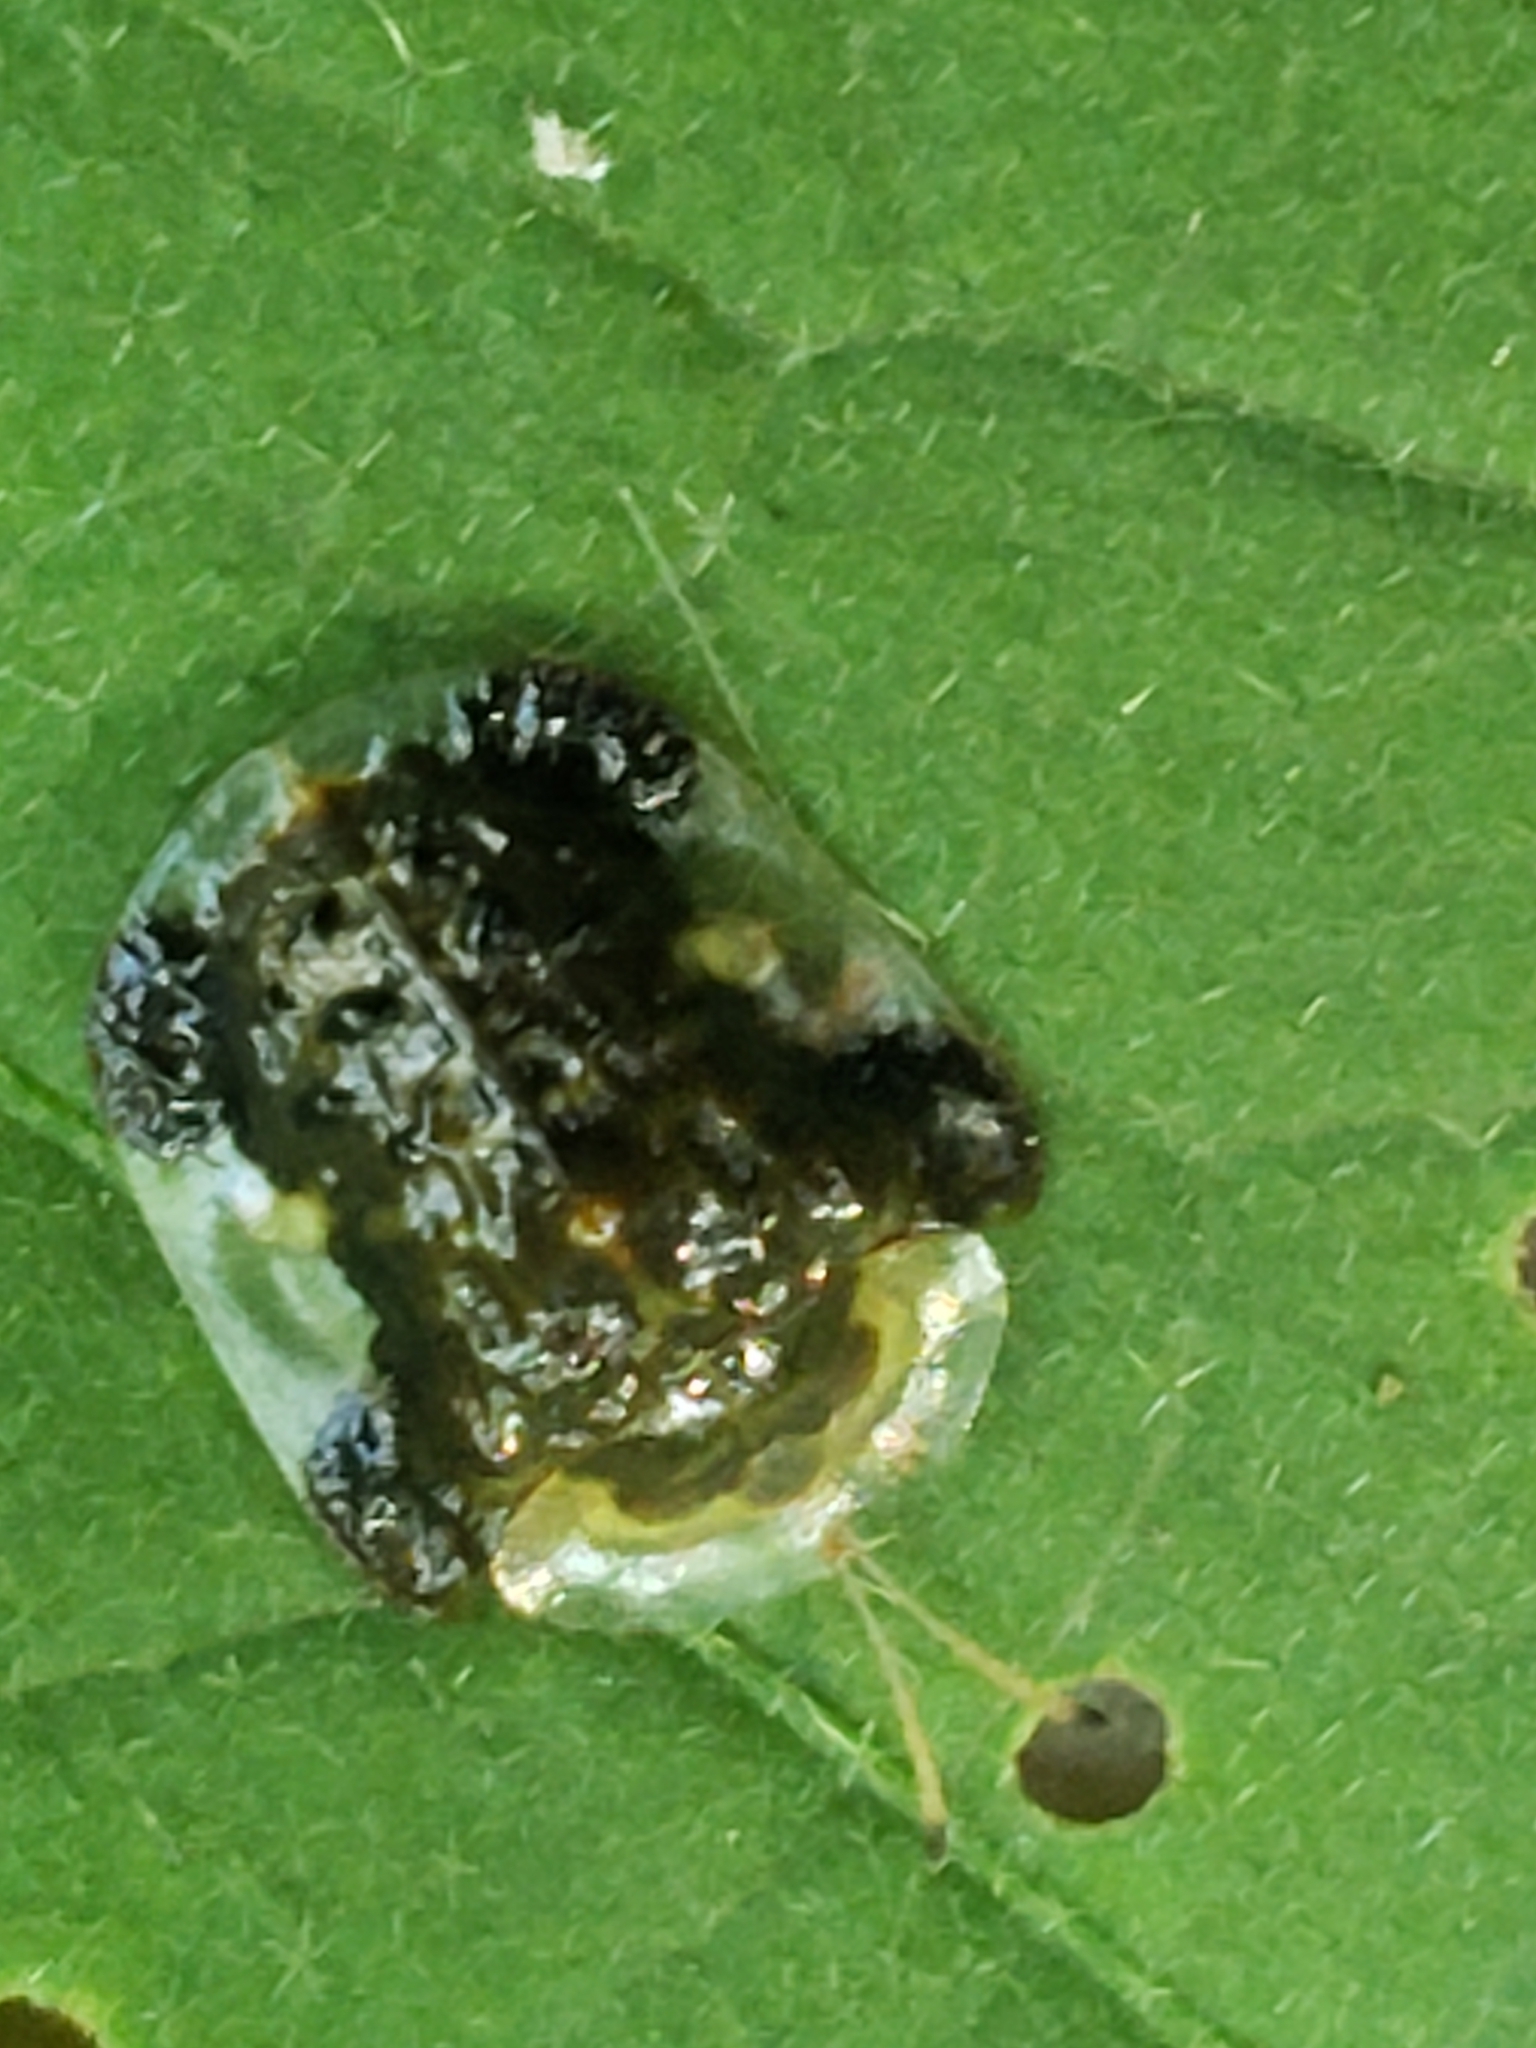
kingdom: Animalia
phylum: Arthropoda
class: Insecta
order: Coleoptera
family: Chrysomelidae
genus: Helocassis
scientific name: Helocassis clavata
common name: Clavate tortoise beetle
